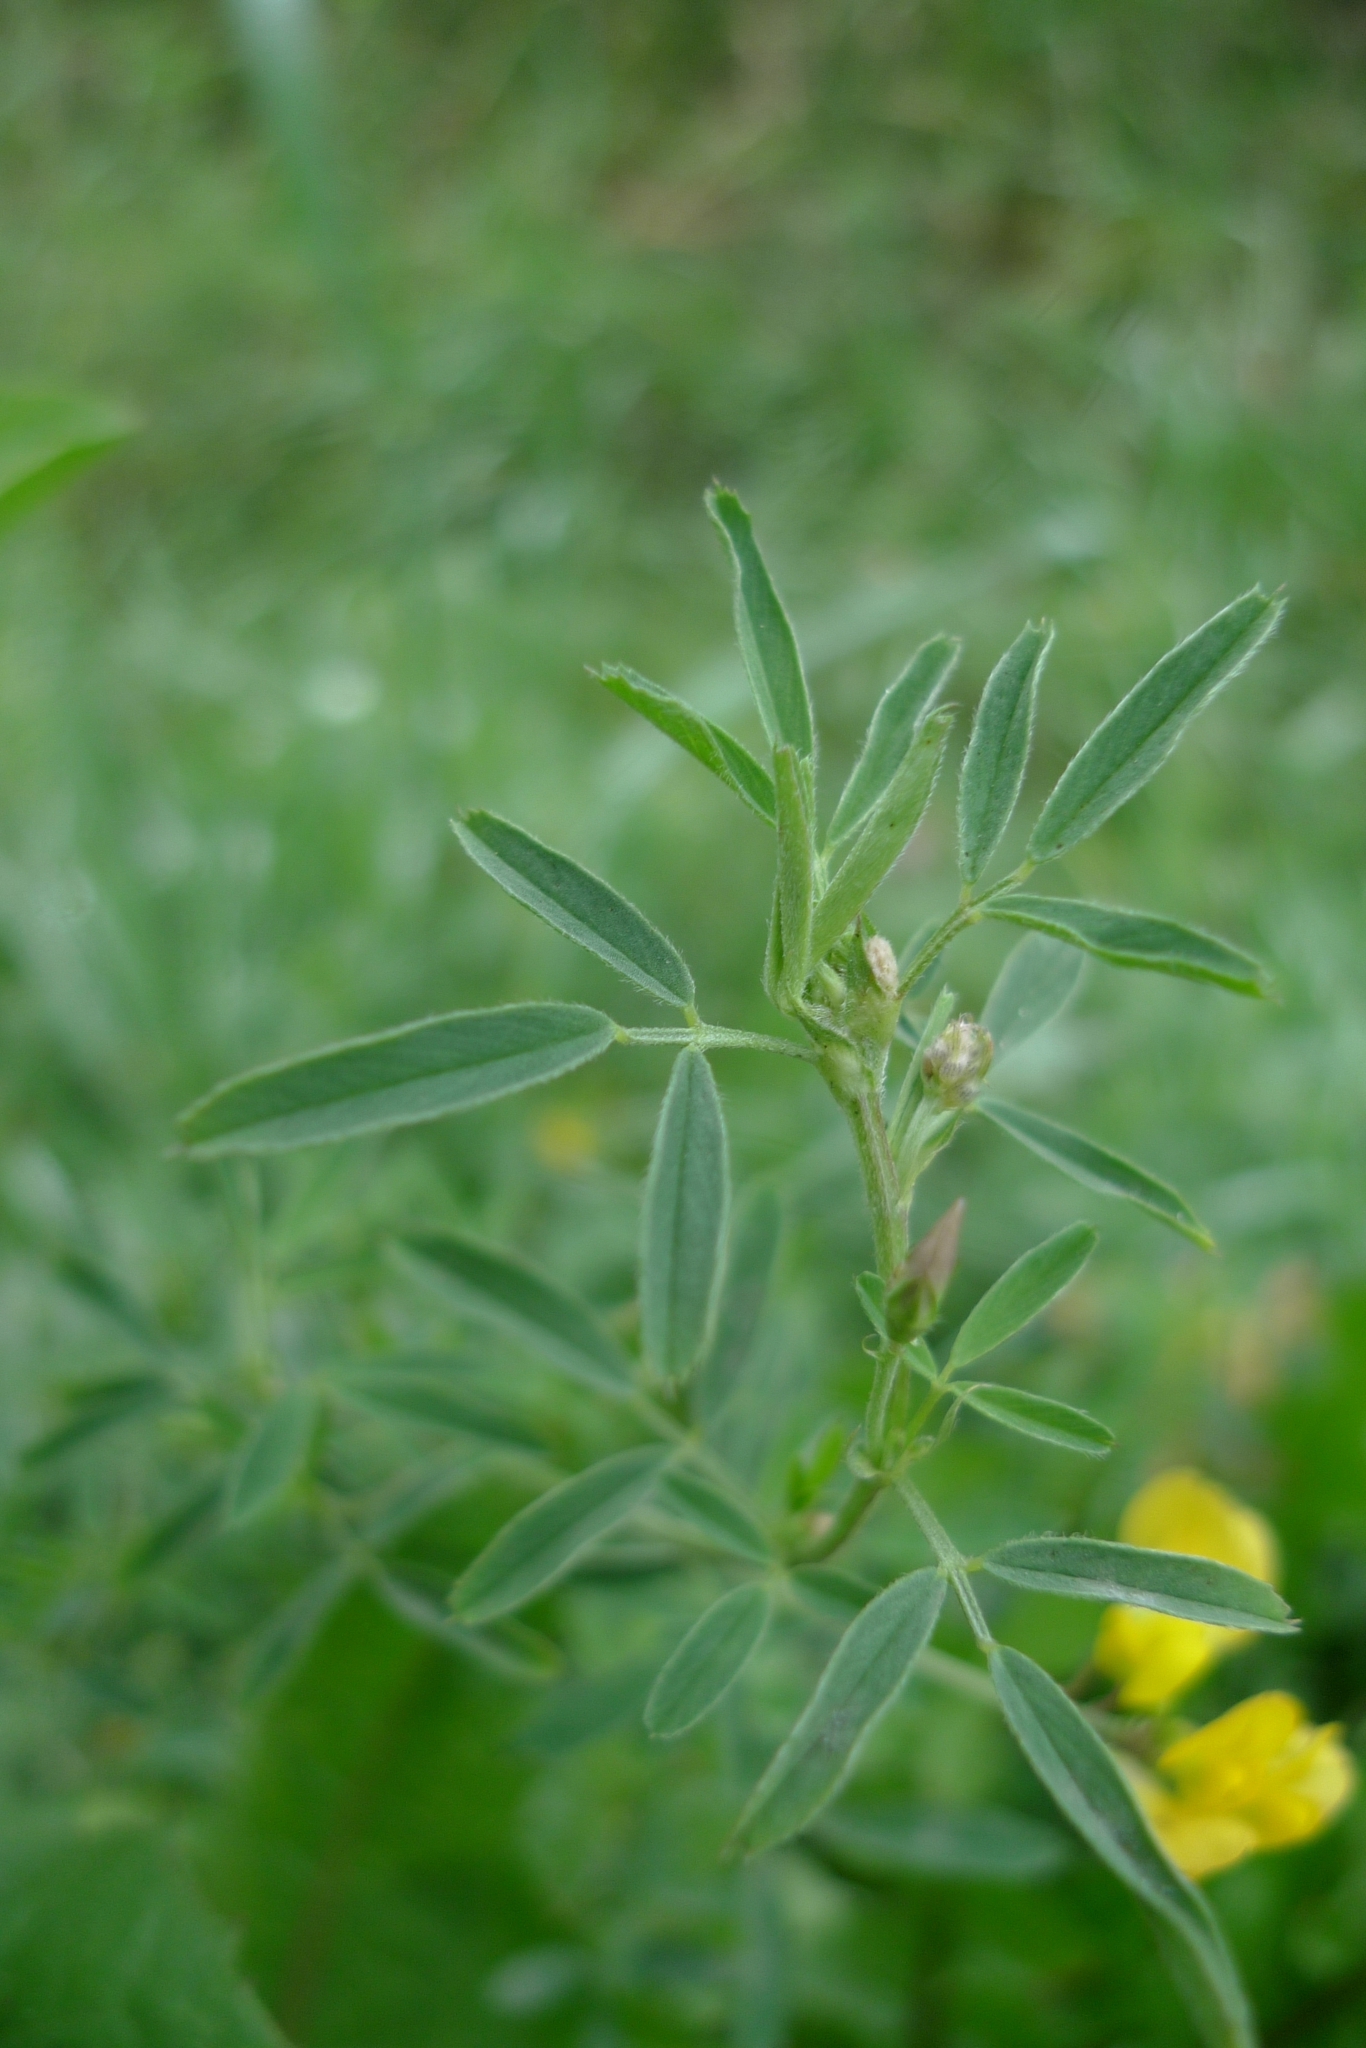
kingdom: Plantae
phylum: Tracheophyta
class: Magnoliopsida
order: Fabales
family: Fabaceae
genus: Medicago
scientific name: Medicago falcata
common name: Sickle medick
